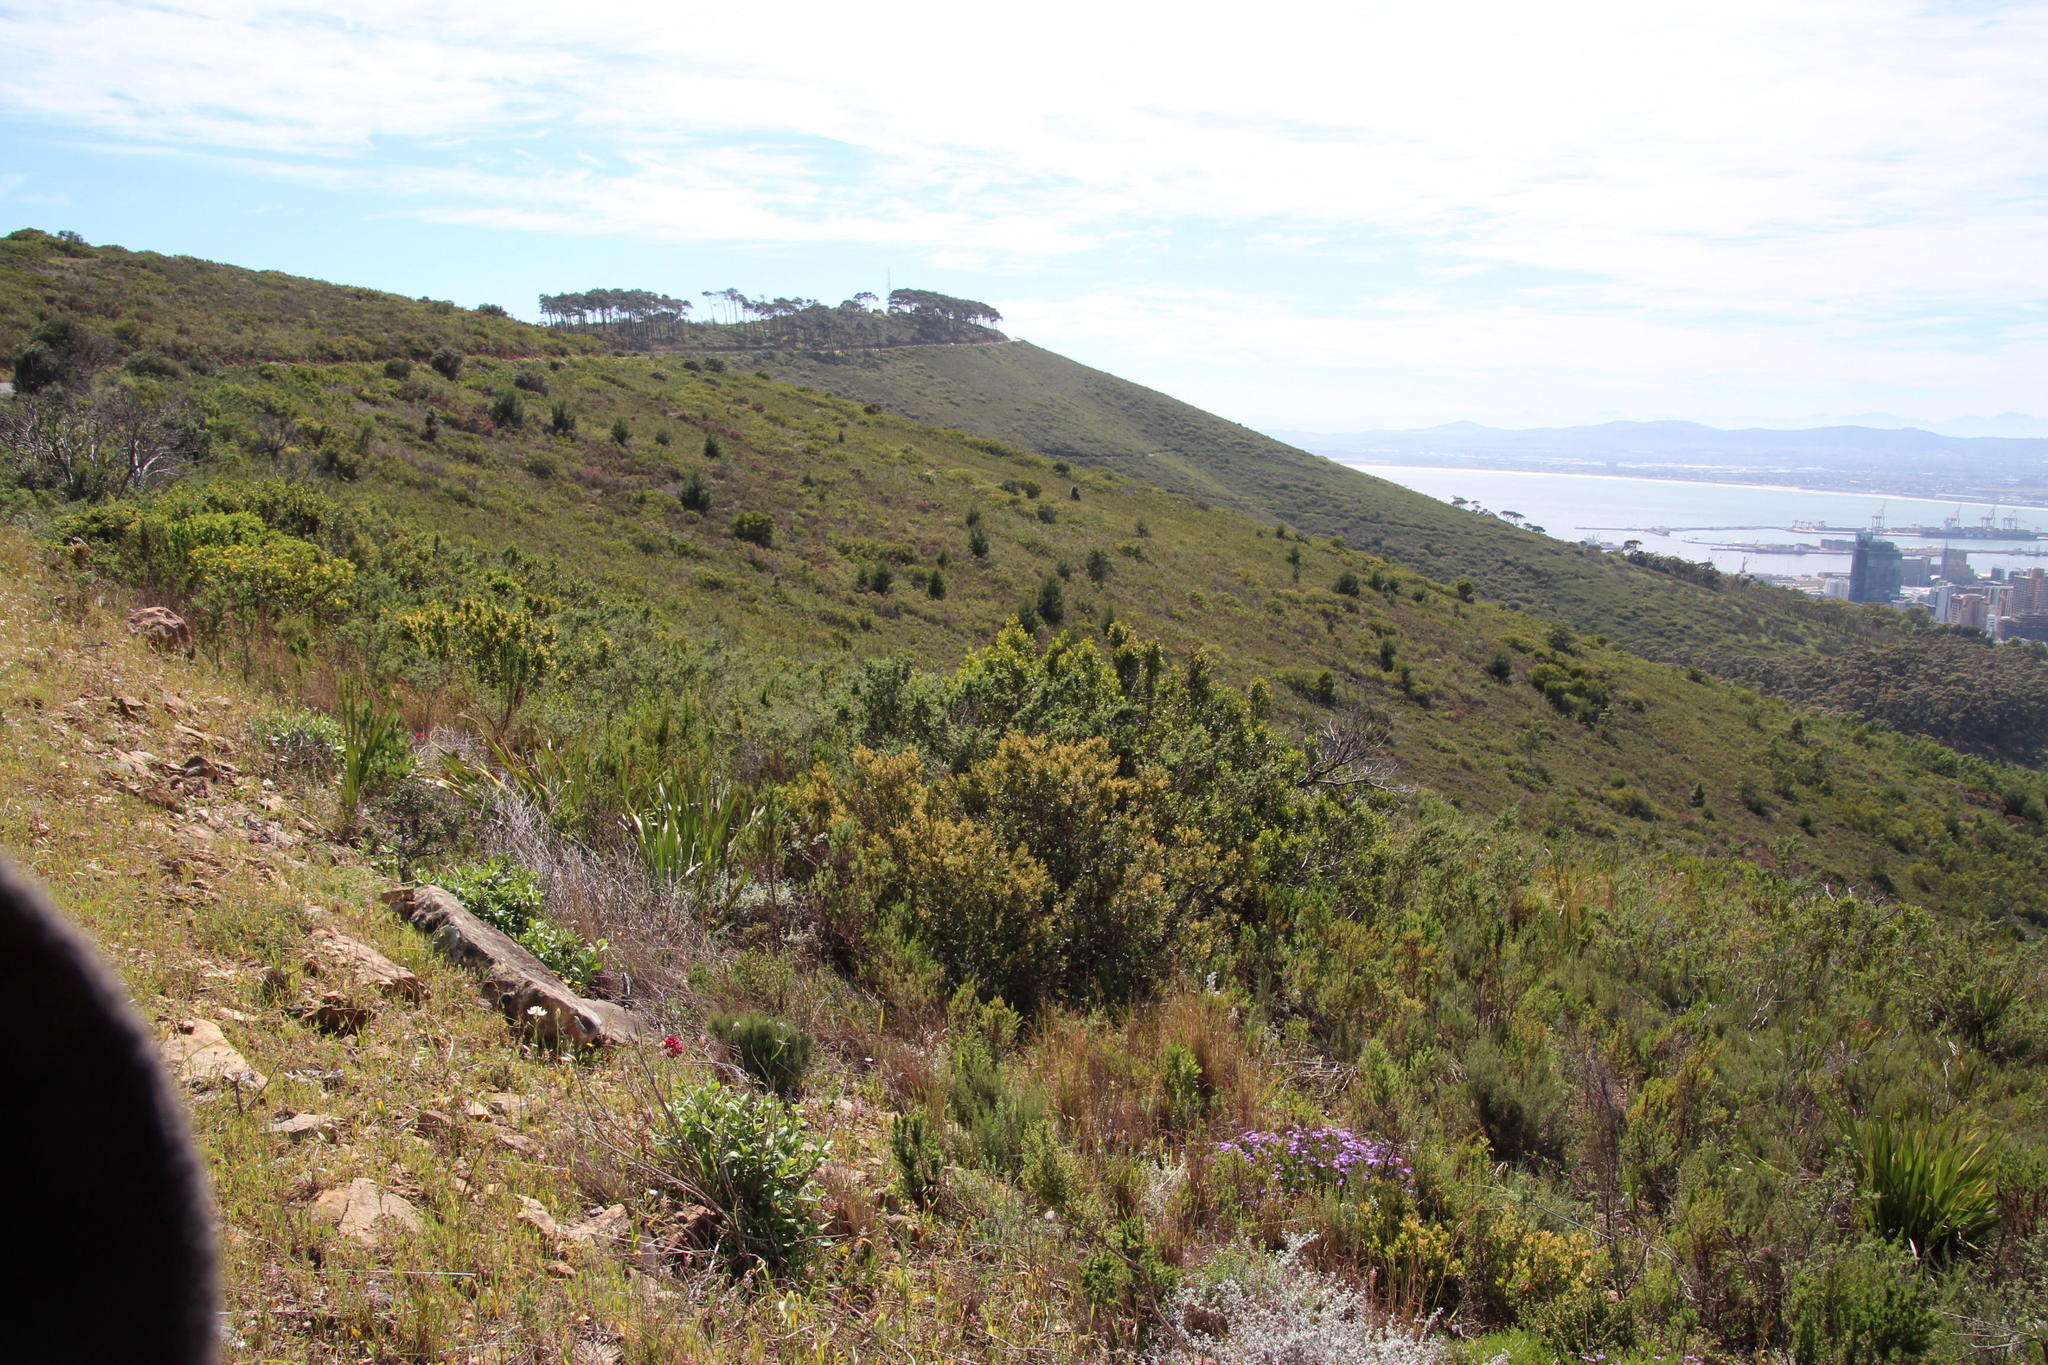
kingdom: Plantae
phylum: Tracheophyta
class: Magnoliopsida
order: Sapindales
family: Anacardiaceae
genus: Searsia
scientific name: Searsia lucida
